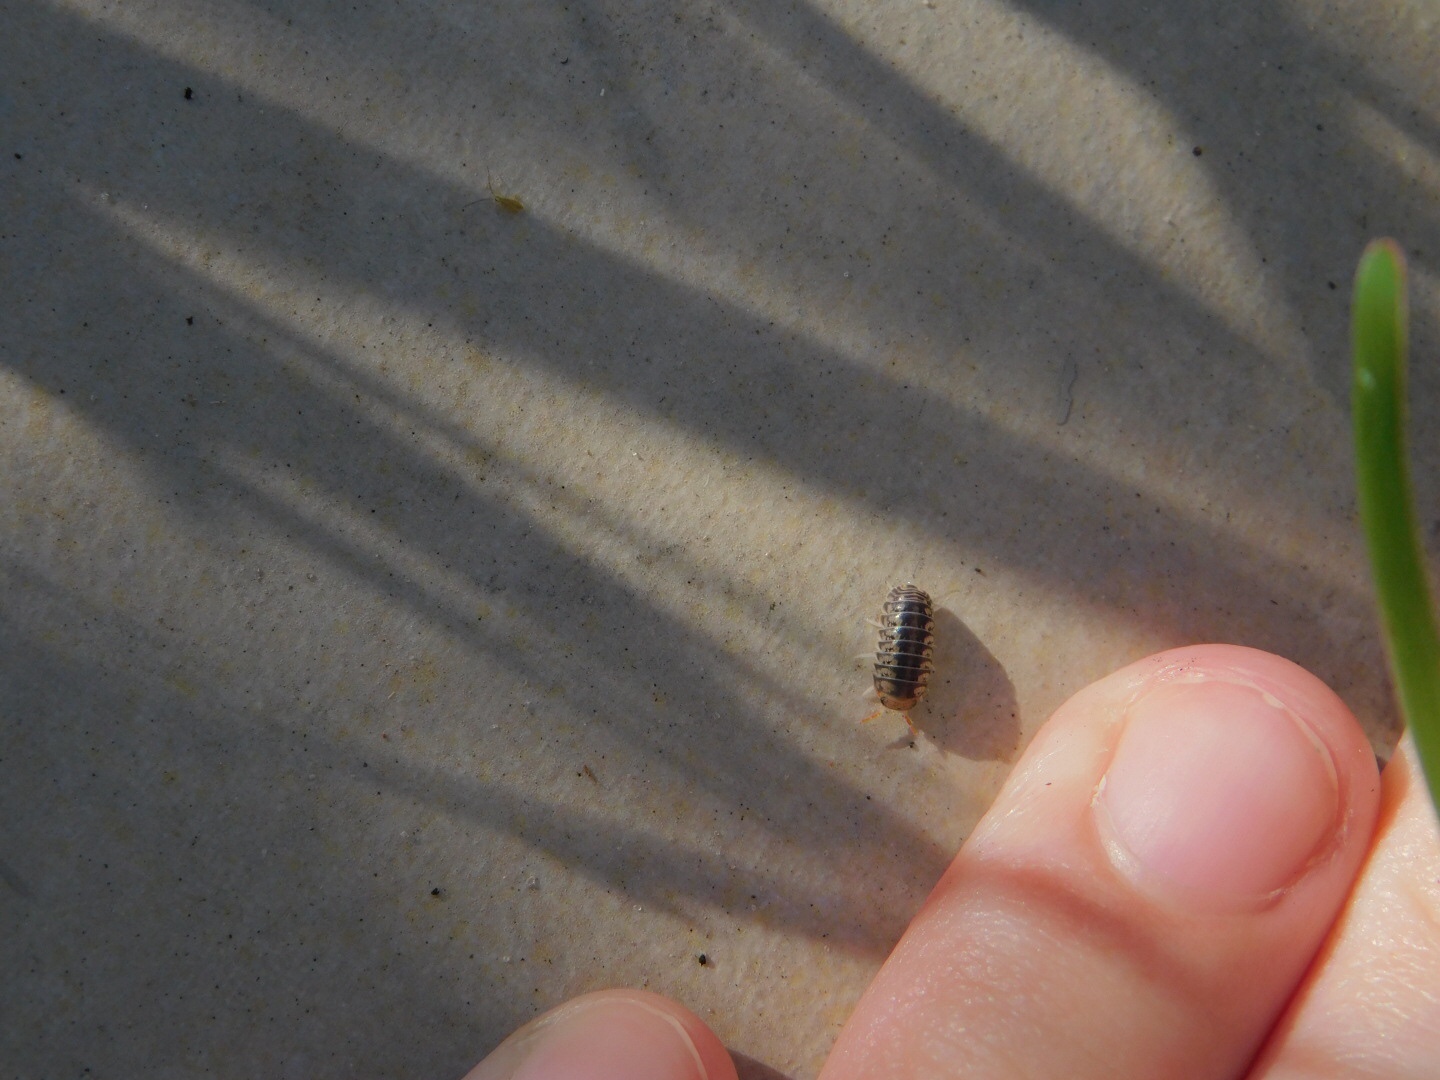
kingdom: Animalia
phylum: Arthropoda
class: Malacostraca
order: Isopoda
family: Armadillidae
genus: Venezillo
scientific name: Venezillo parvus
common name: Pillbug
